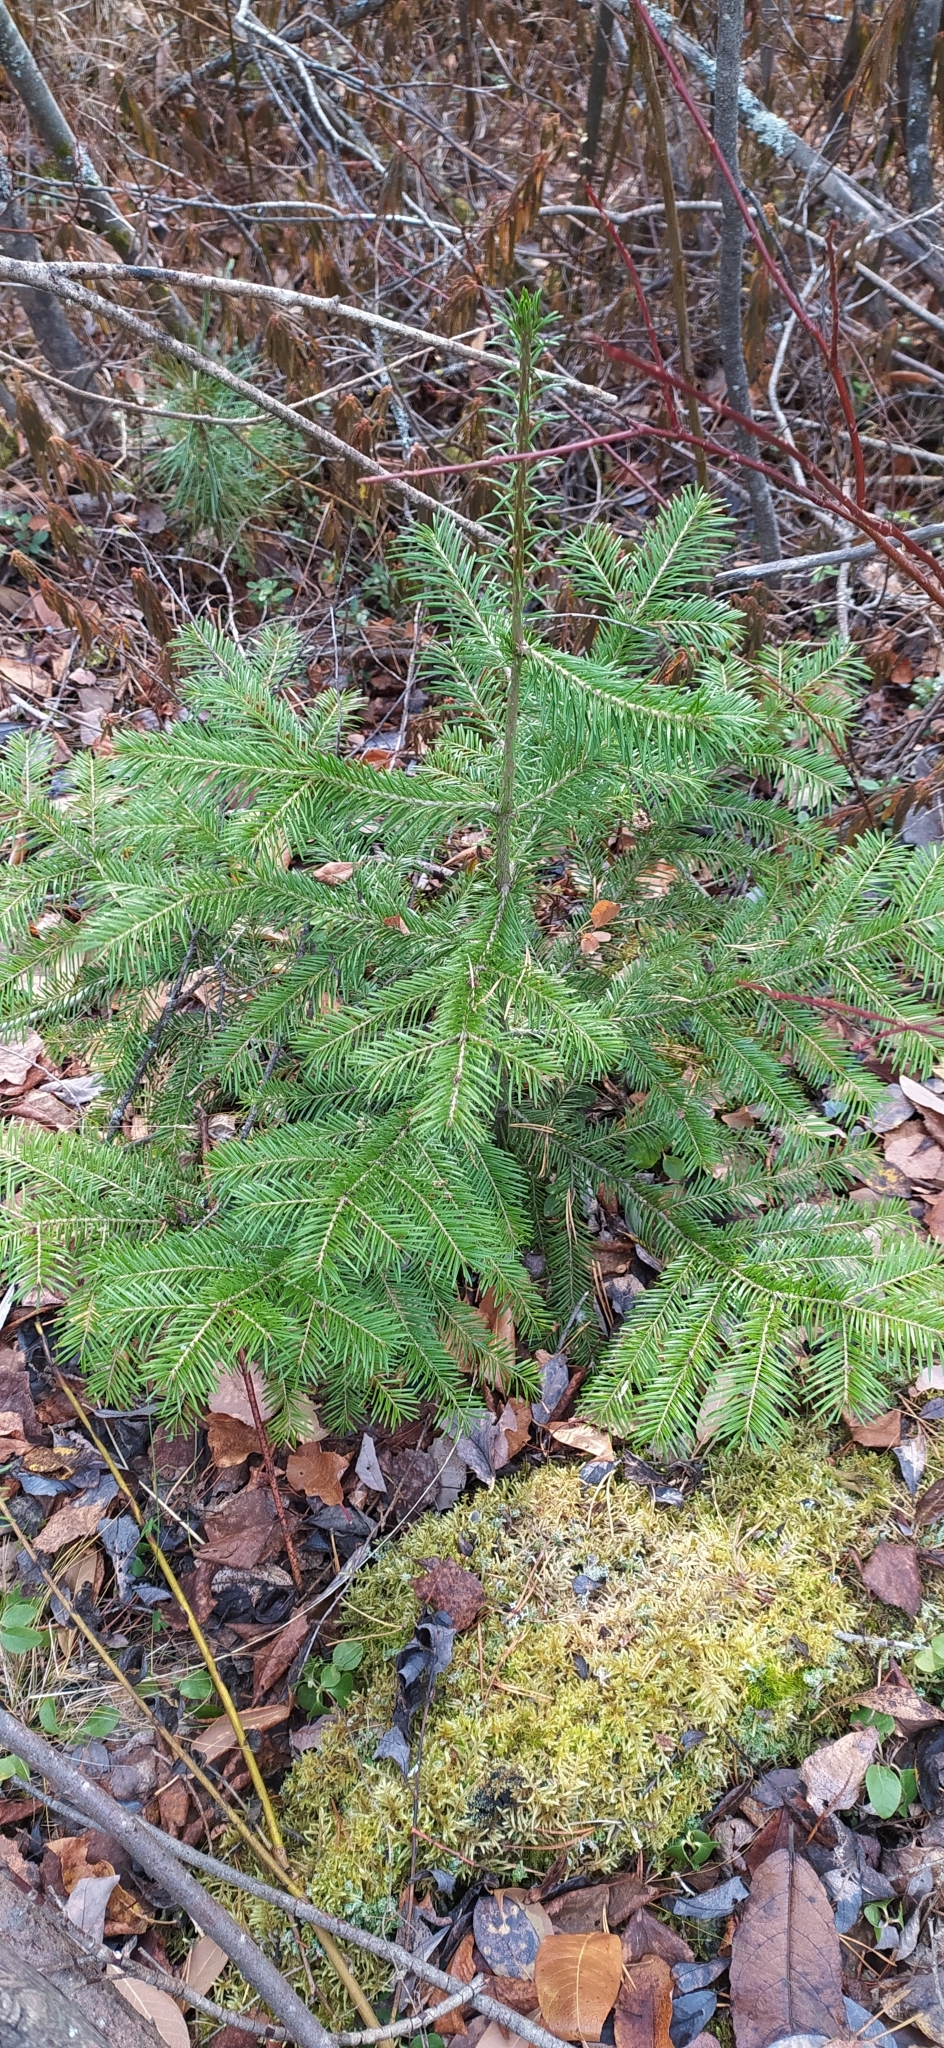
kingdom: Plantae
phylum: Tracheophyta
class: Pinopsida
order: Pinales
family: Pinaceae
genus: Abies
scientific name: Abies sibirica
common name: Siberian fir
